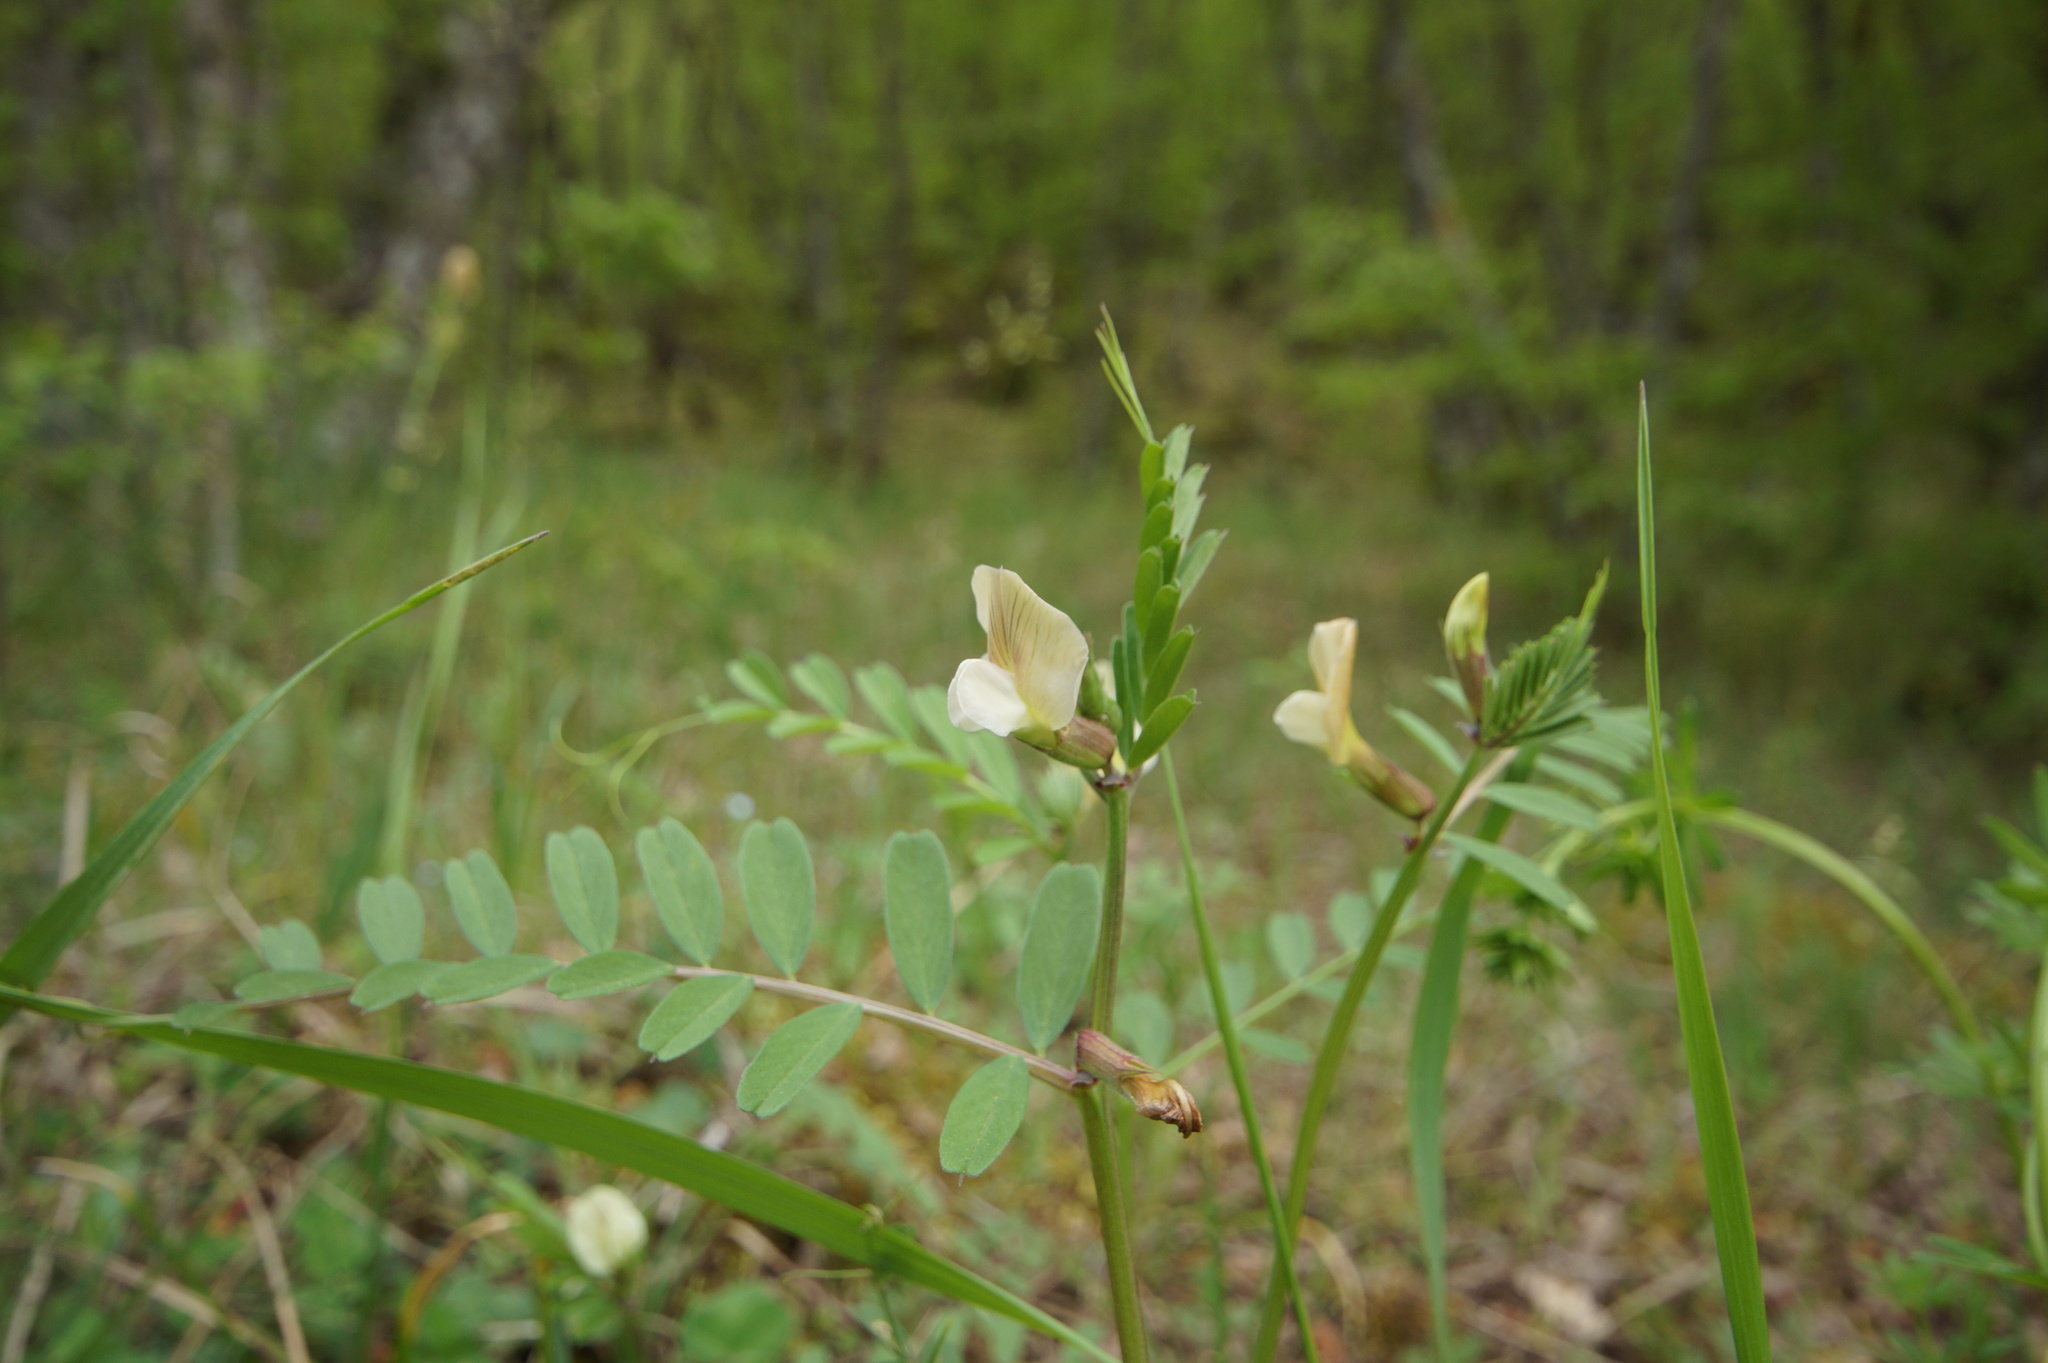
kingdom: Plantae
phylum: Tracheophyta
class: Magnoliopsida
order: Fabales
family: Fabaceae
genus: Vicia
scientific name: Vicia hybrida
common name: Hairy yellow vetch
